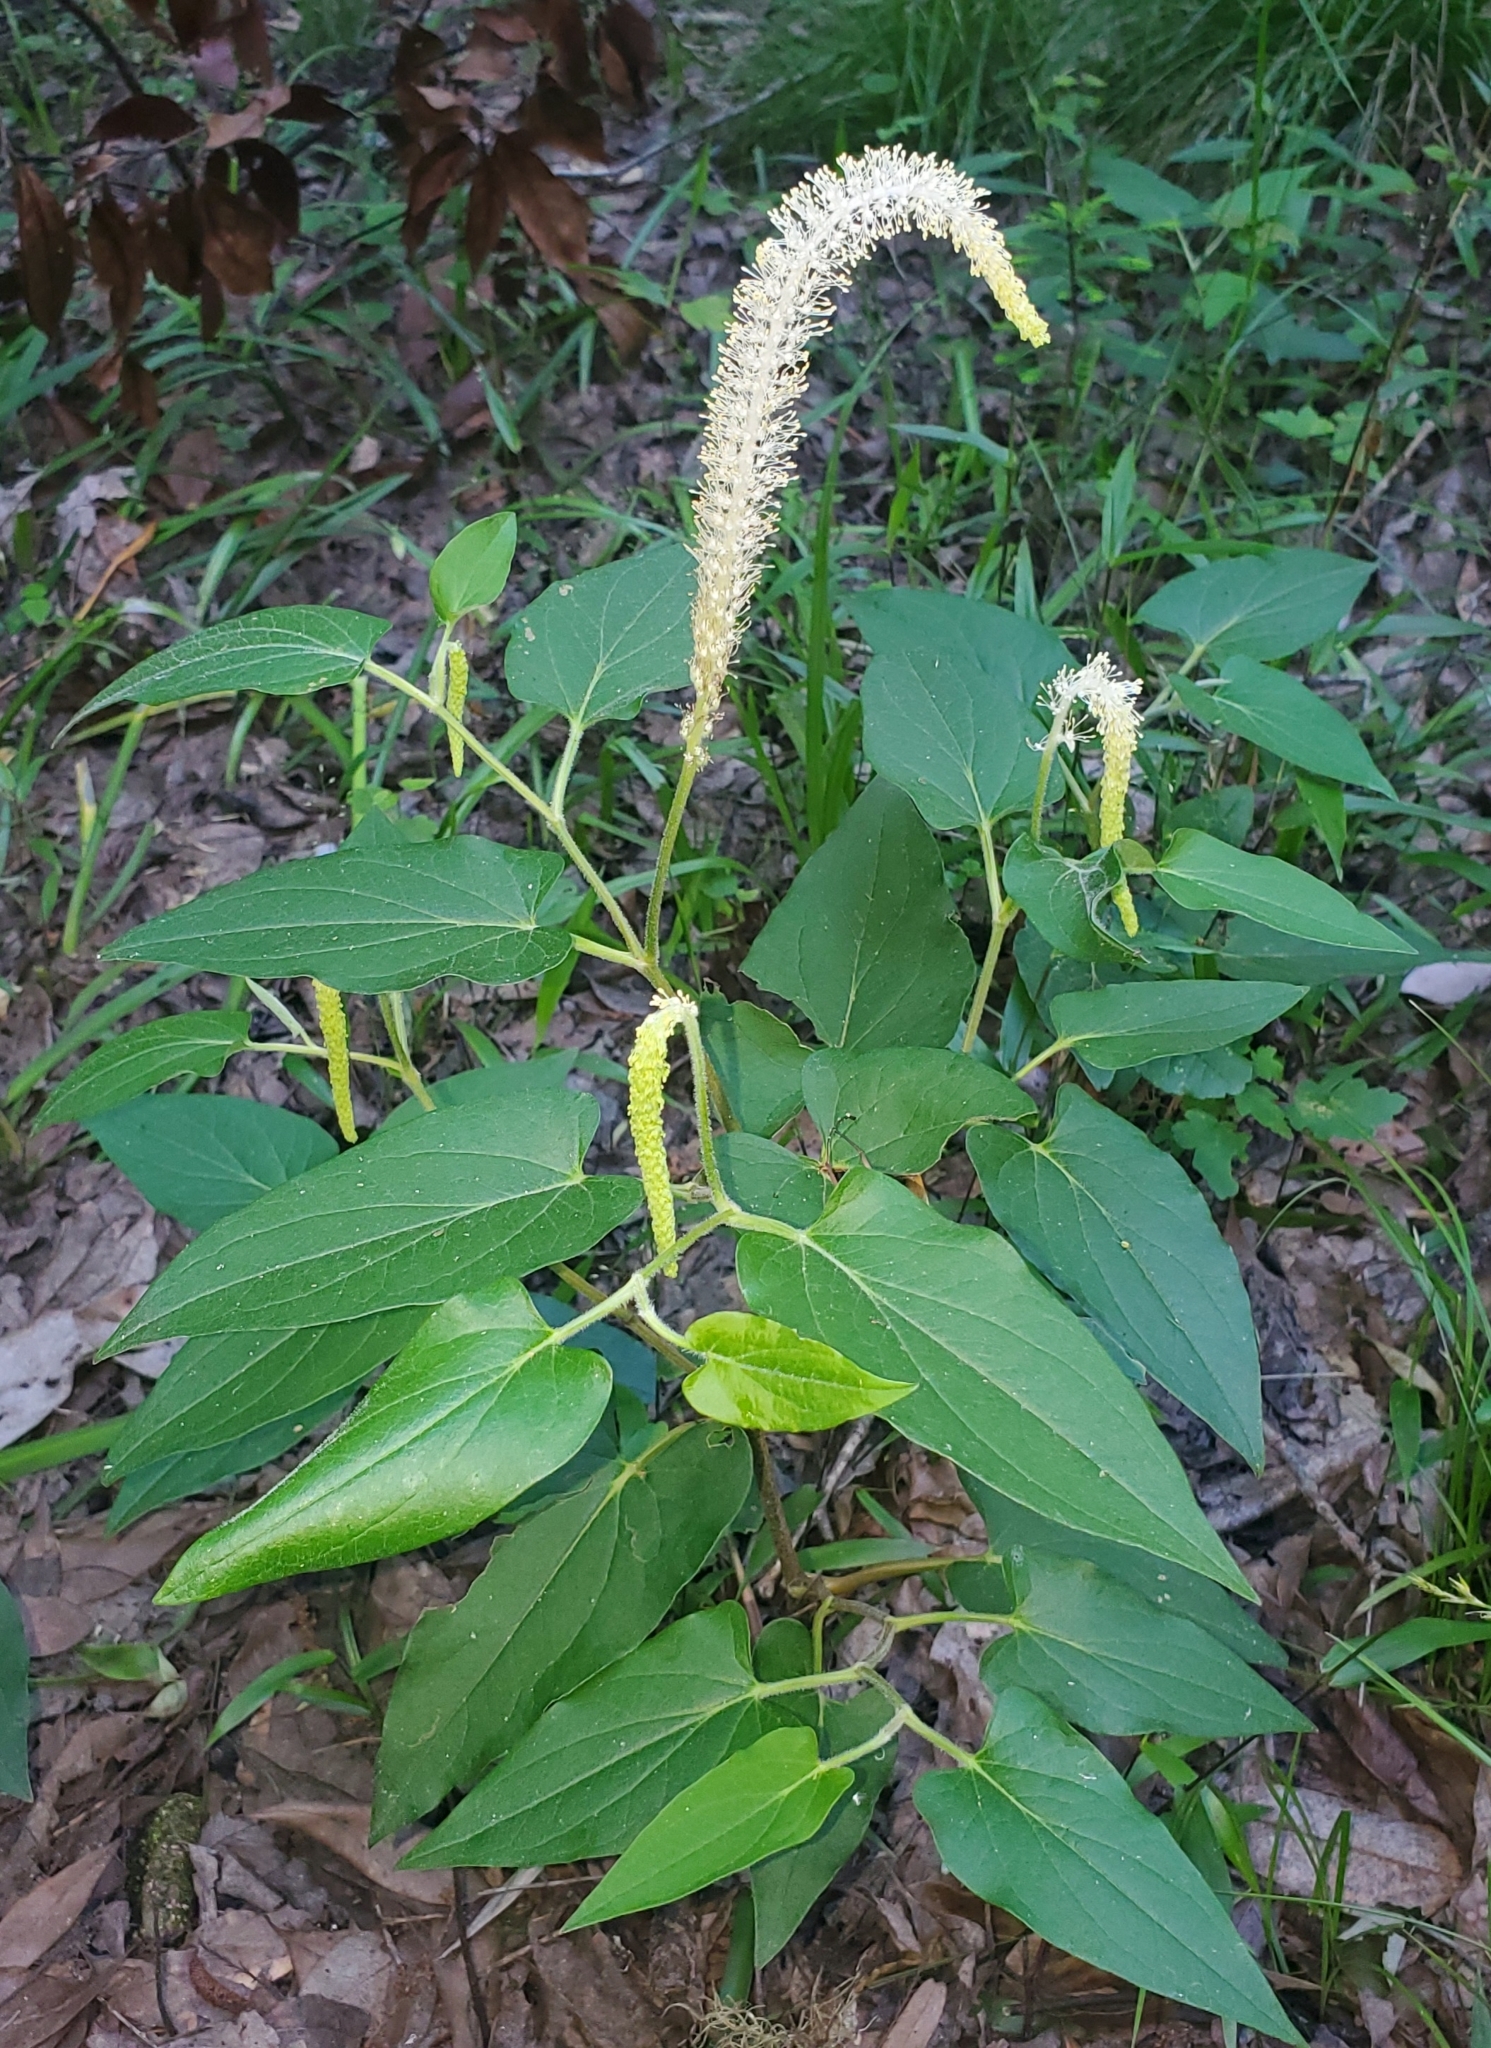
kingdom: Plantae
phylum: Tracheophyta
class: Magnoliopsida
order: Piperales
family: Saururaceae
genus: Saururus
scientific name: Saururus cernuus
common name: Lizard's-tail
